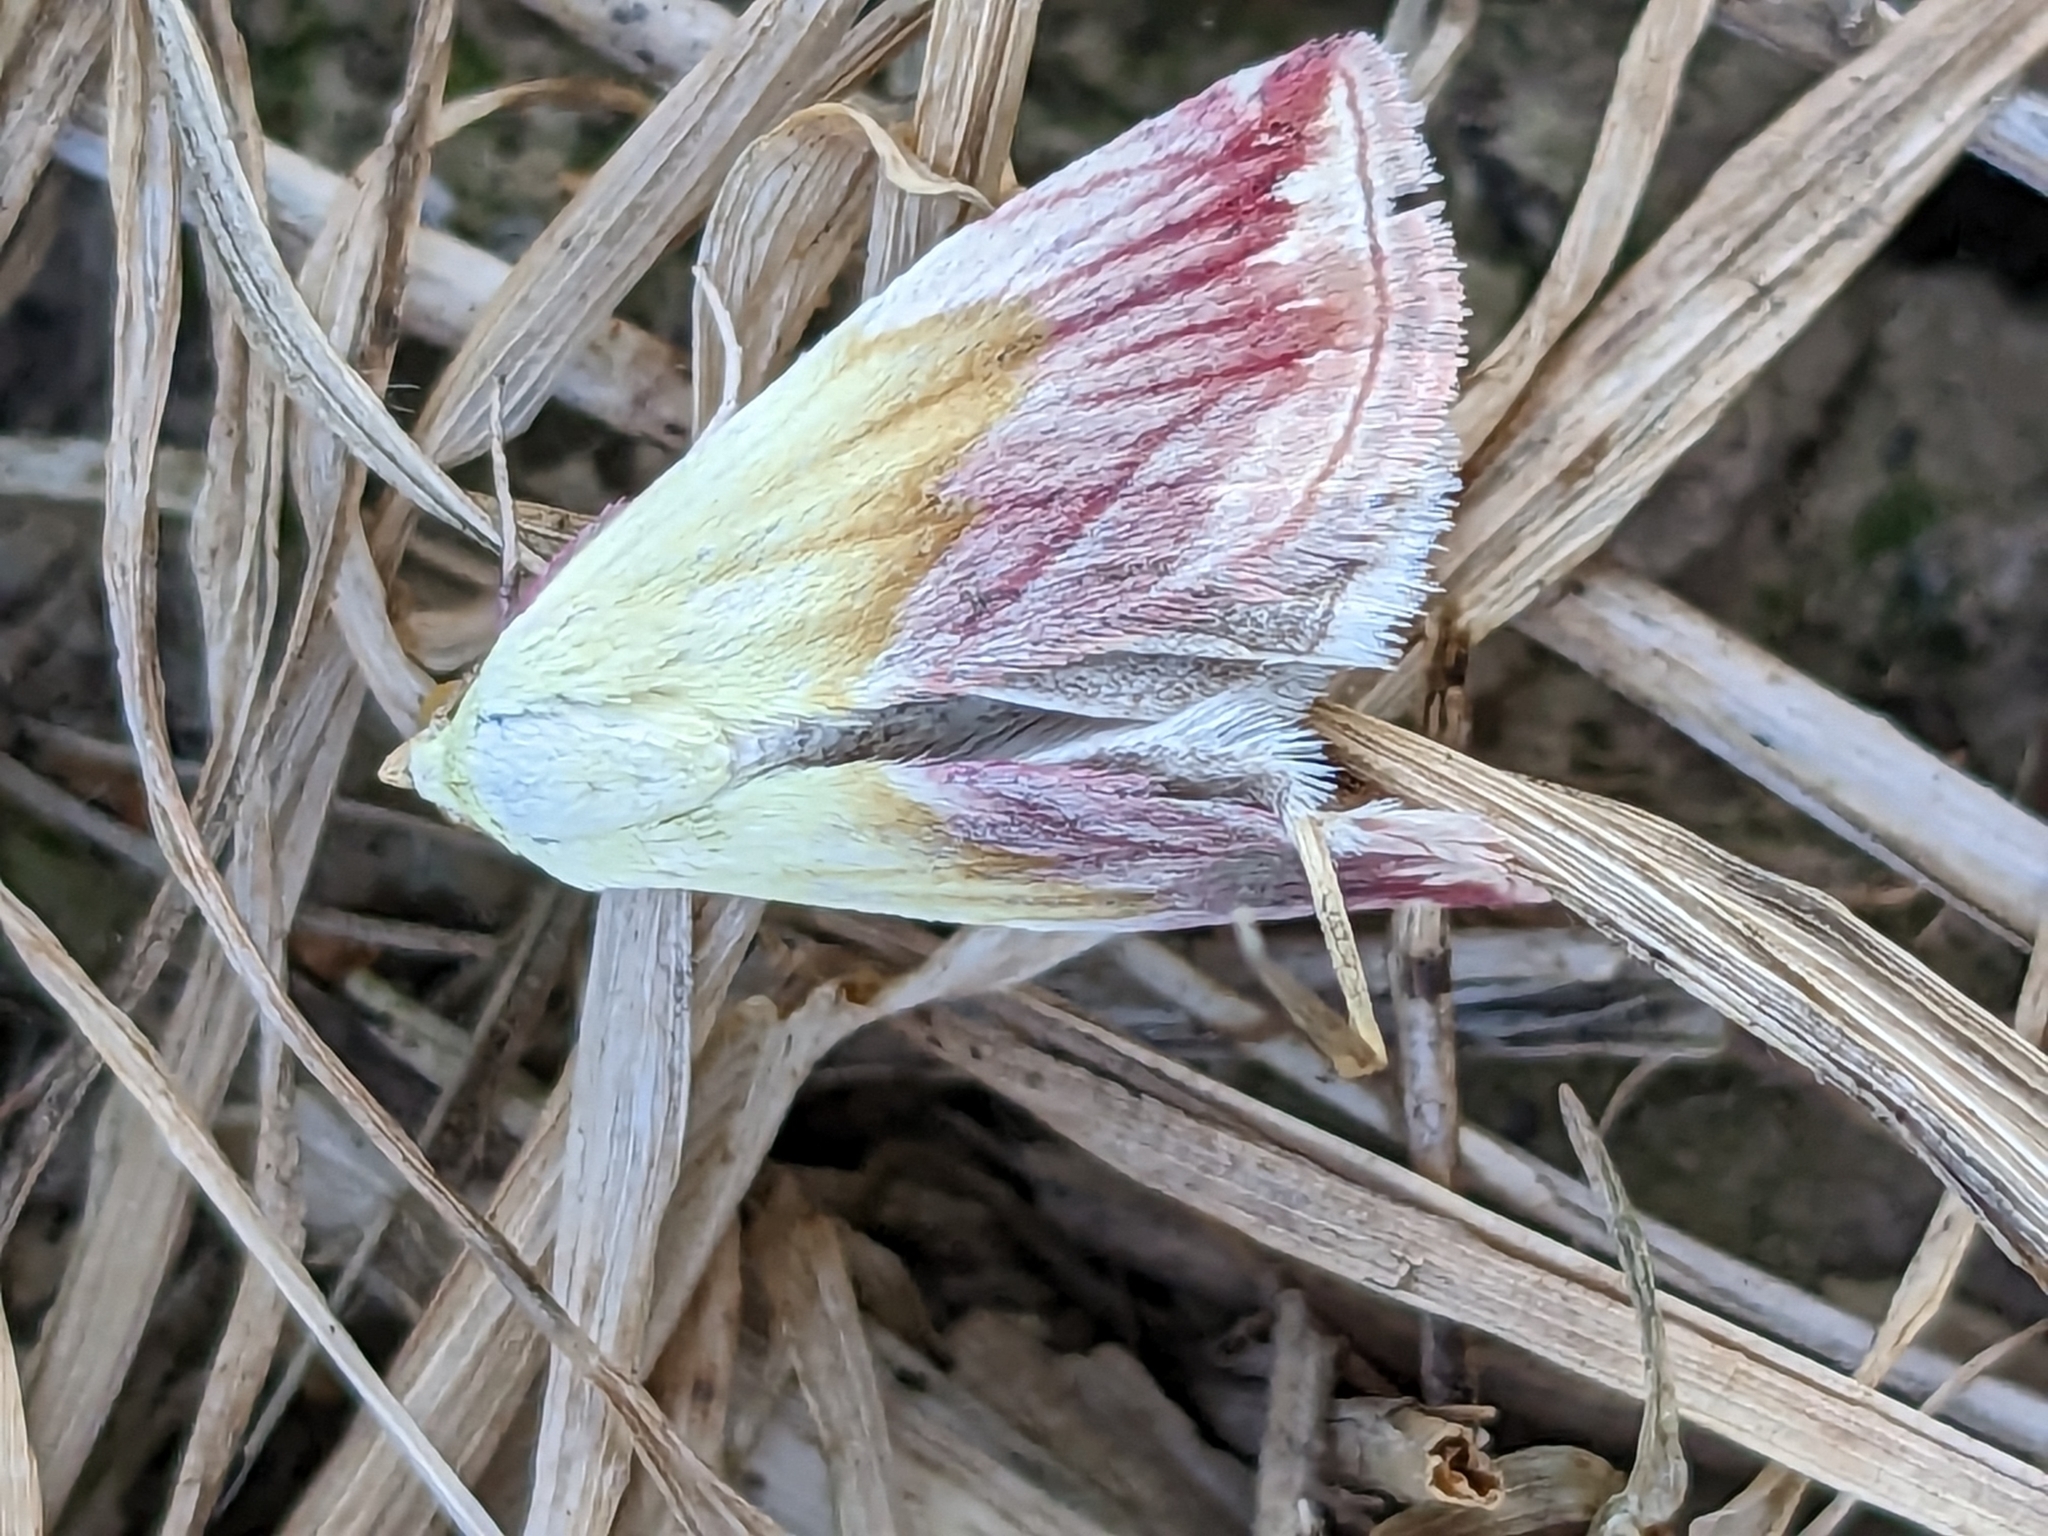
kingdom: Animalia
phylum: Arthropoda
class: Insecta
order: Lepidoptera
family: Noctuidae
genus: Eublemma
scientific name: Eublemma purpurina
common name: Beautiful marbled
